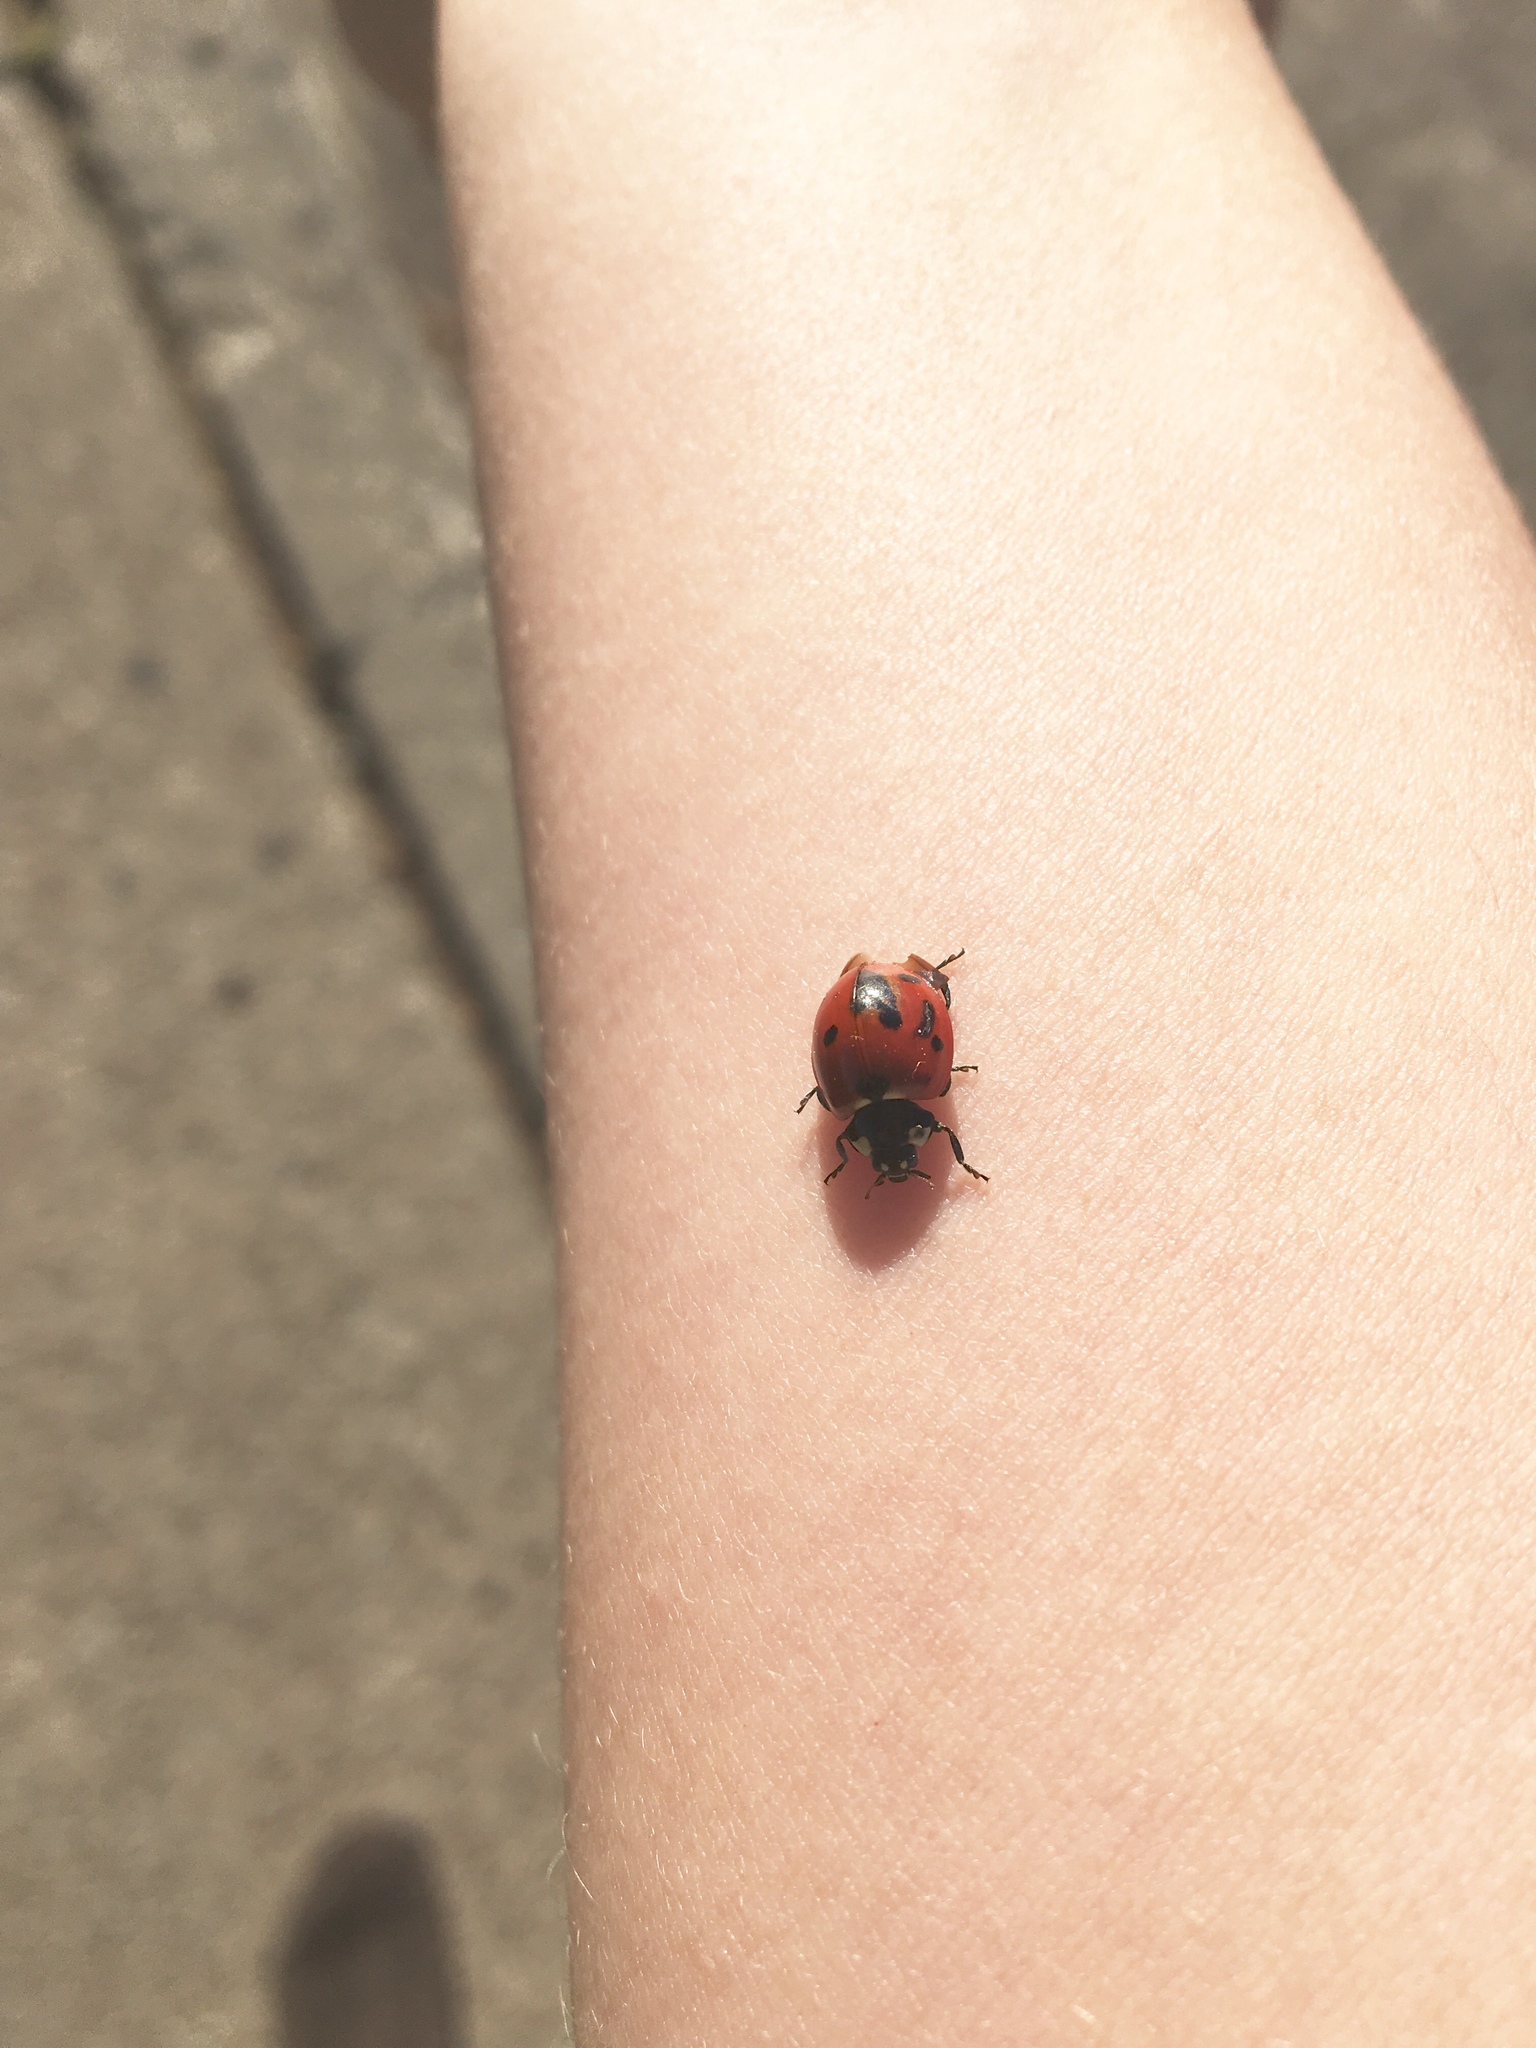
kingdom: Animalia
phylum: Arthropoda
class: Insecta
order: Coleoptera
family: Coccinellidae
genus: Coccinella
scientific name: Coccinella septempunctata
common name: Sevenspotted lady beetle
